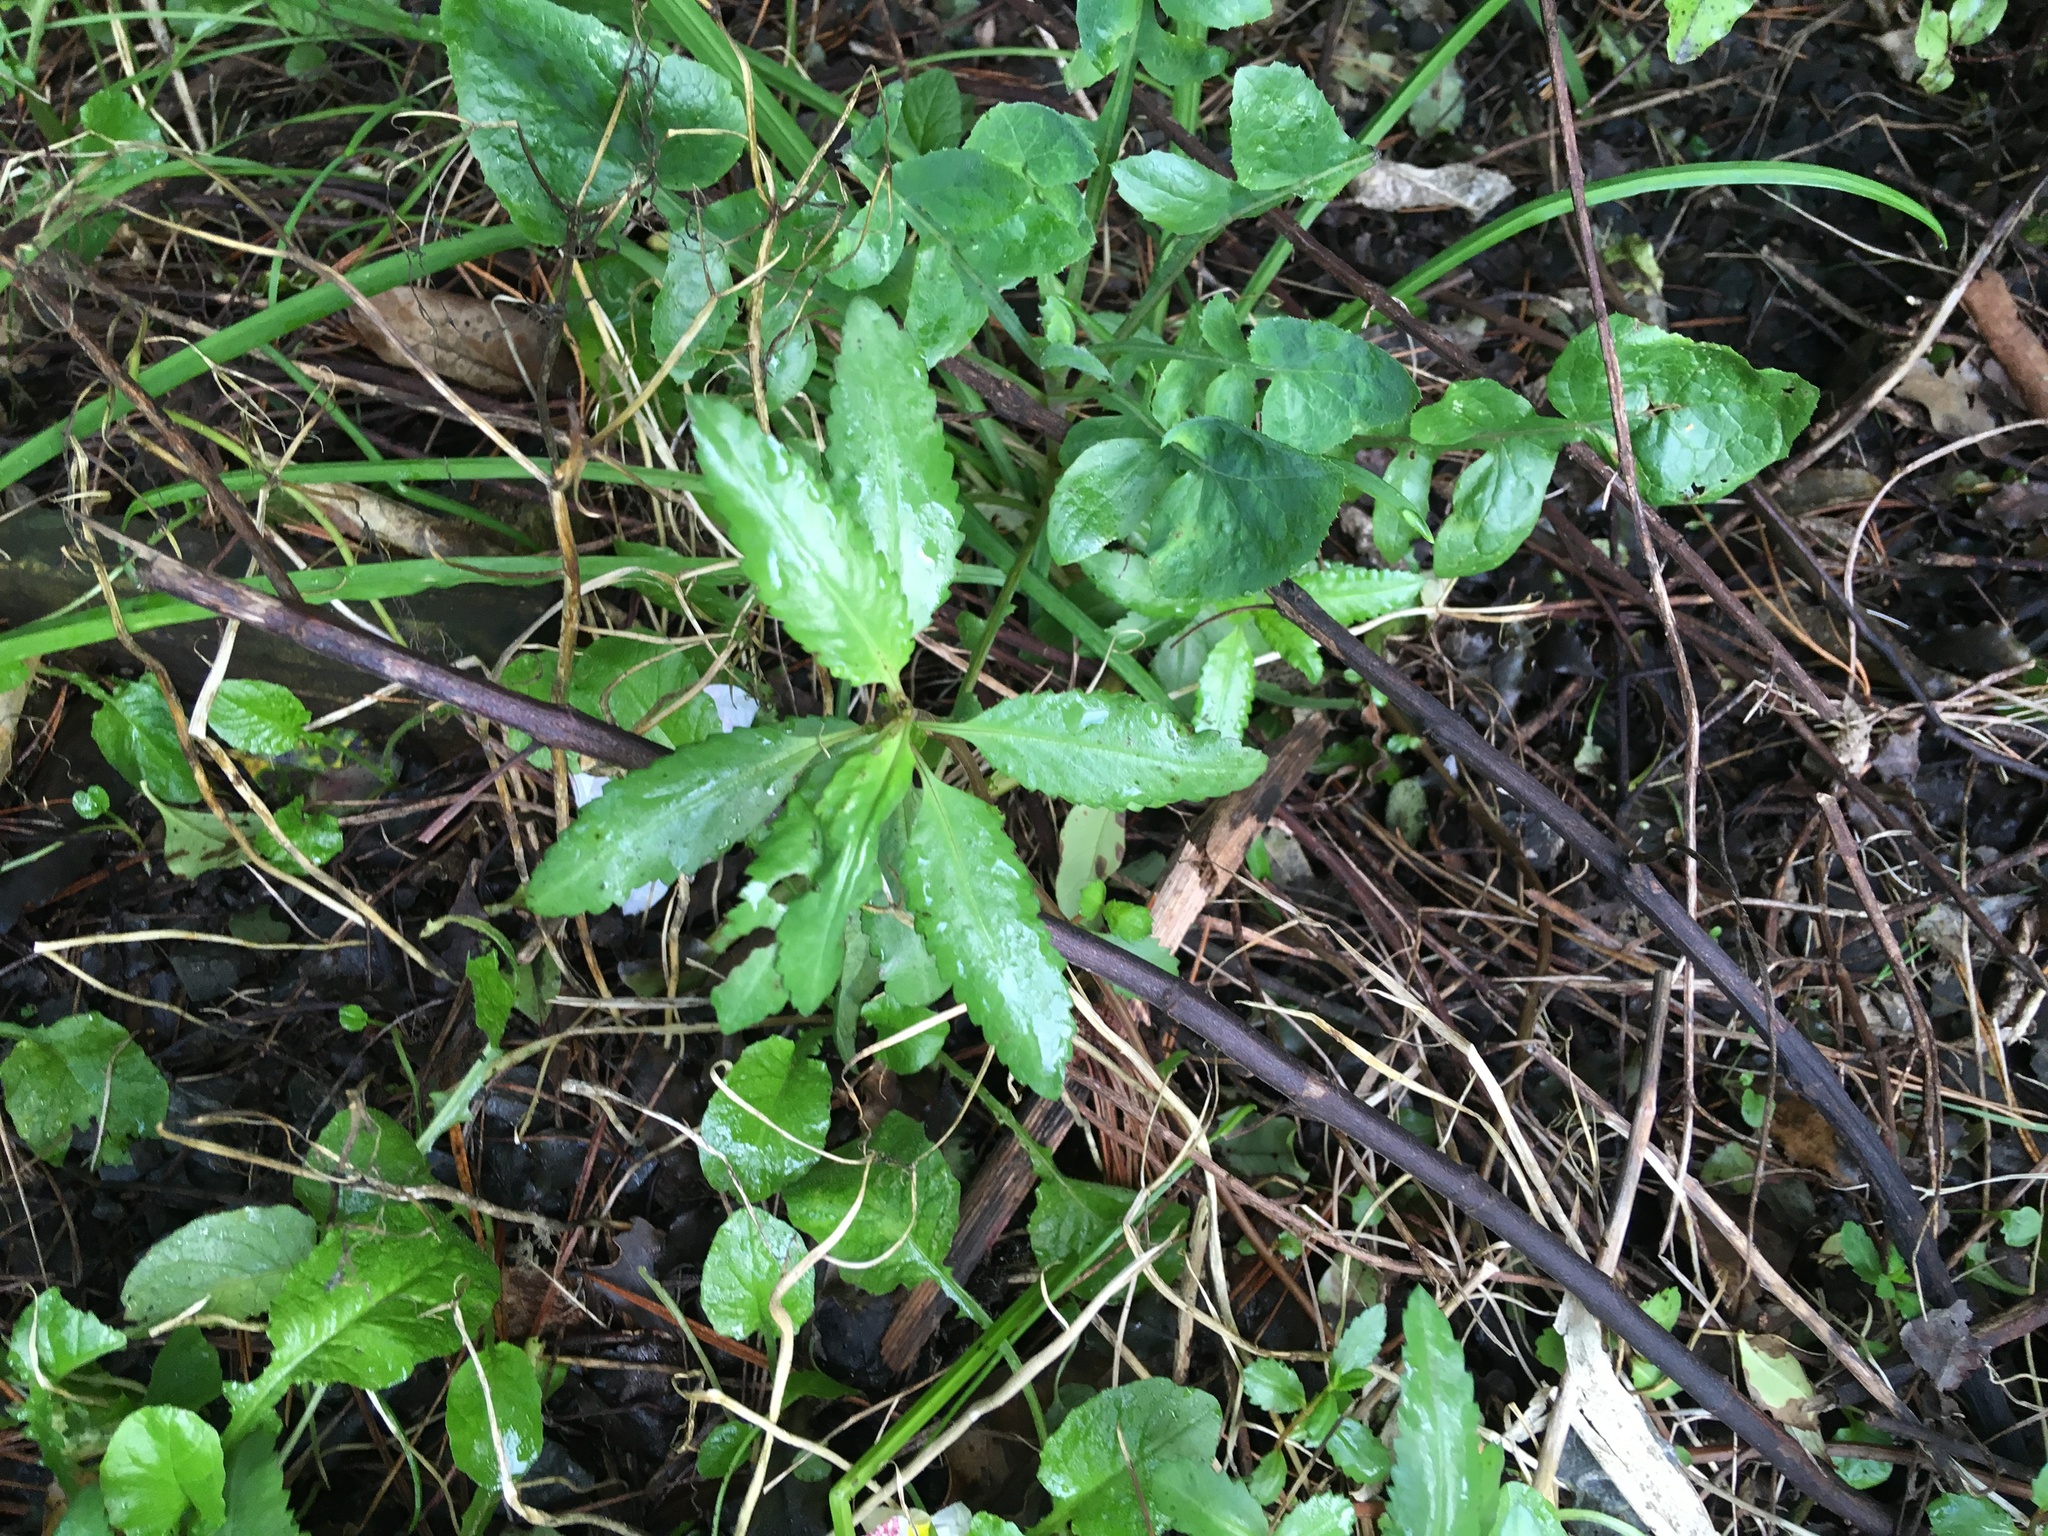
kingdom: Plantae
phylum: Tracheophyta
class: Magnoliopsida
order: Saxifragales
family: Haloragaceae
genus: Haloragis
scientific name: Haloragis erecta
